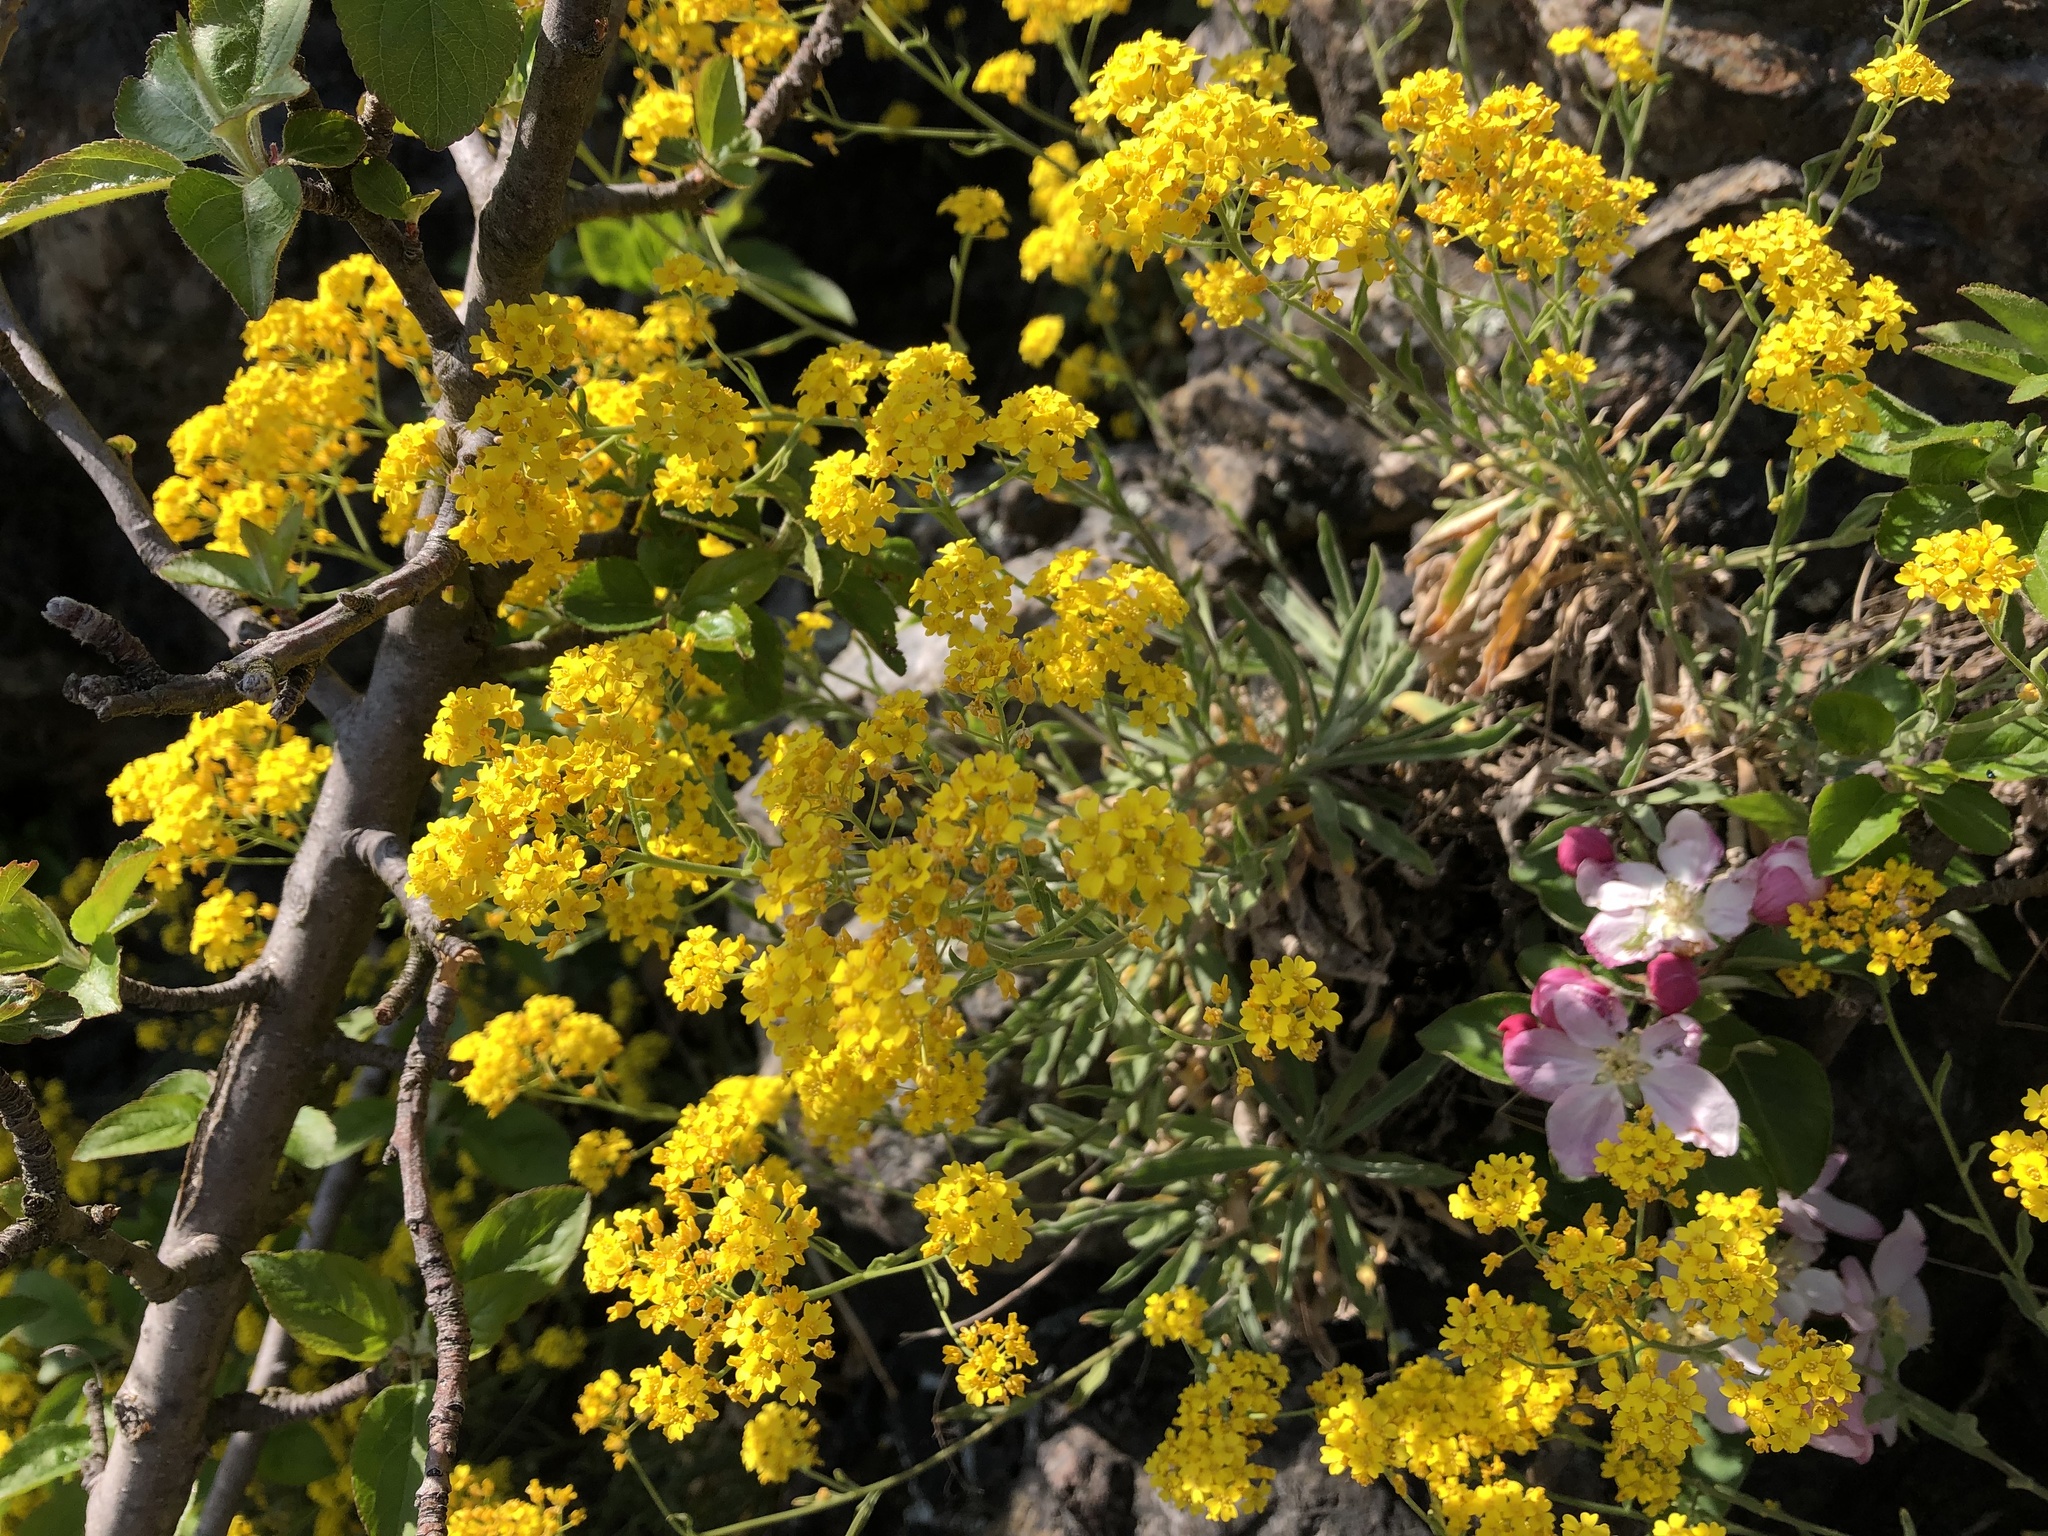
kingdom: Plantae
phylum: Tracheophyta
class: Magnoliopsida
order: Brassicales
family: Brassicaceae
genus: Aurinia
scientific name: Aurinia saxatilis
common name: Golden-tuft alyssum
